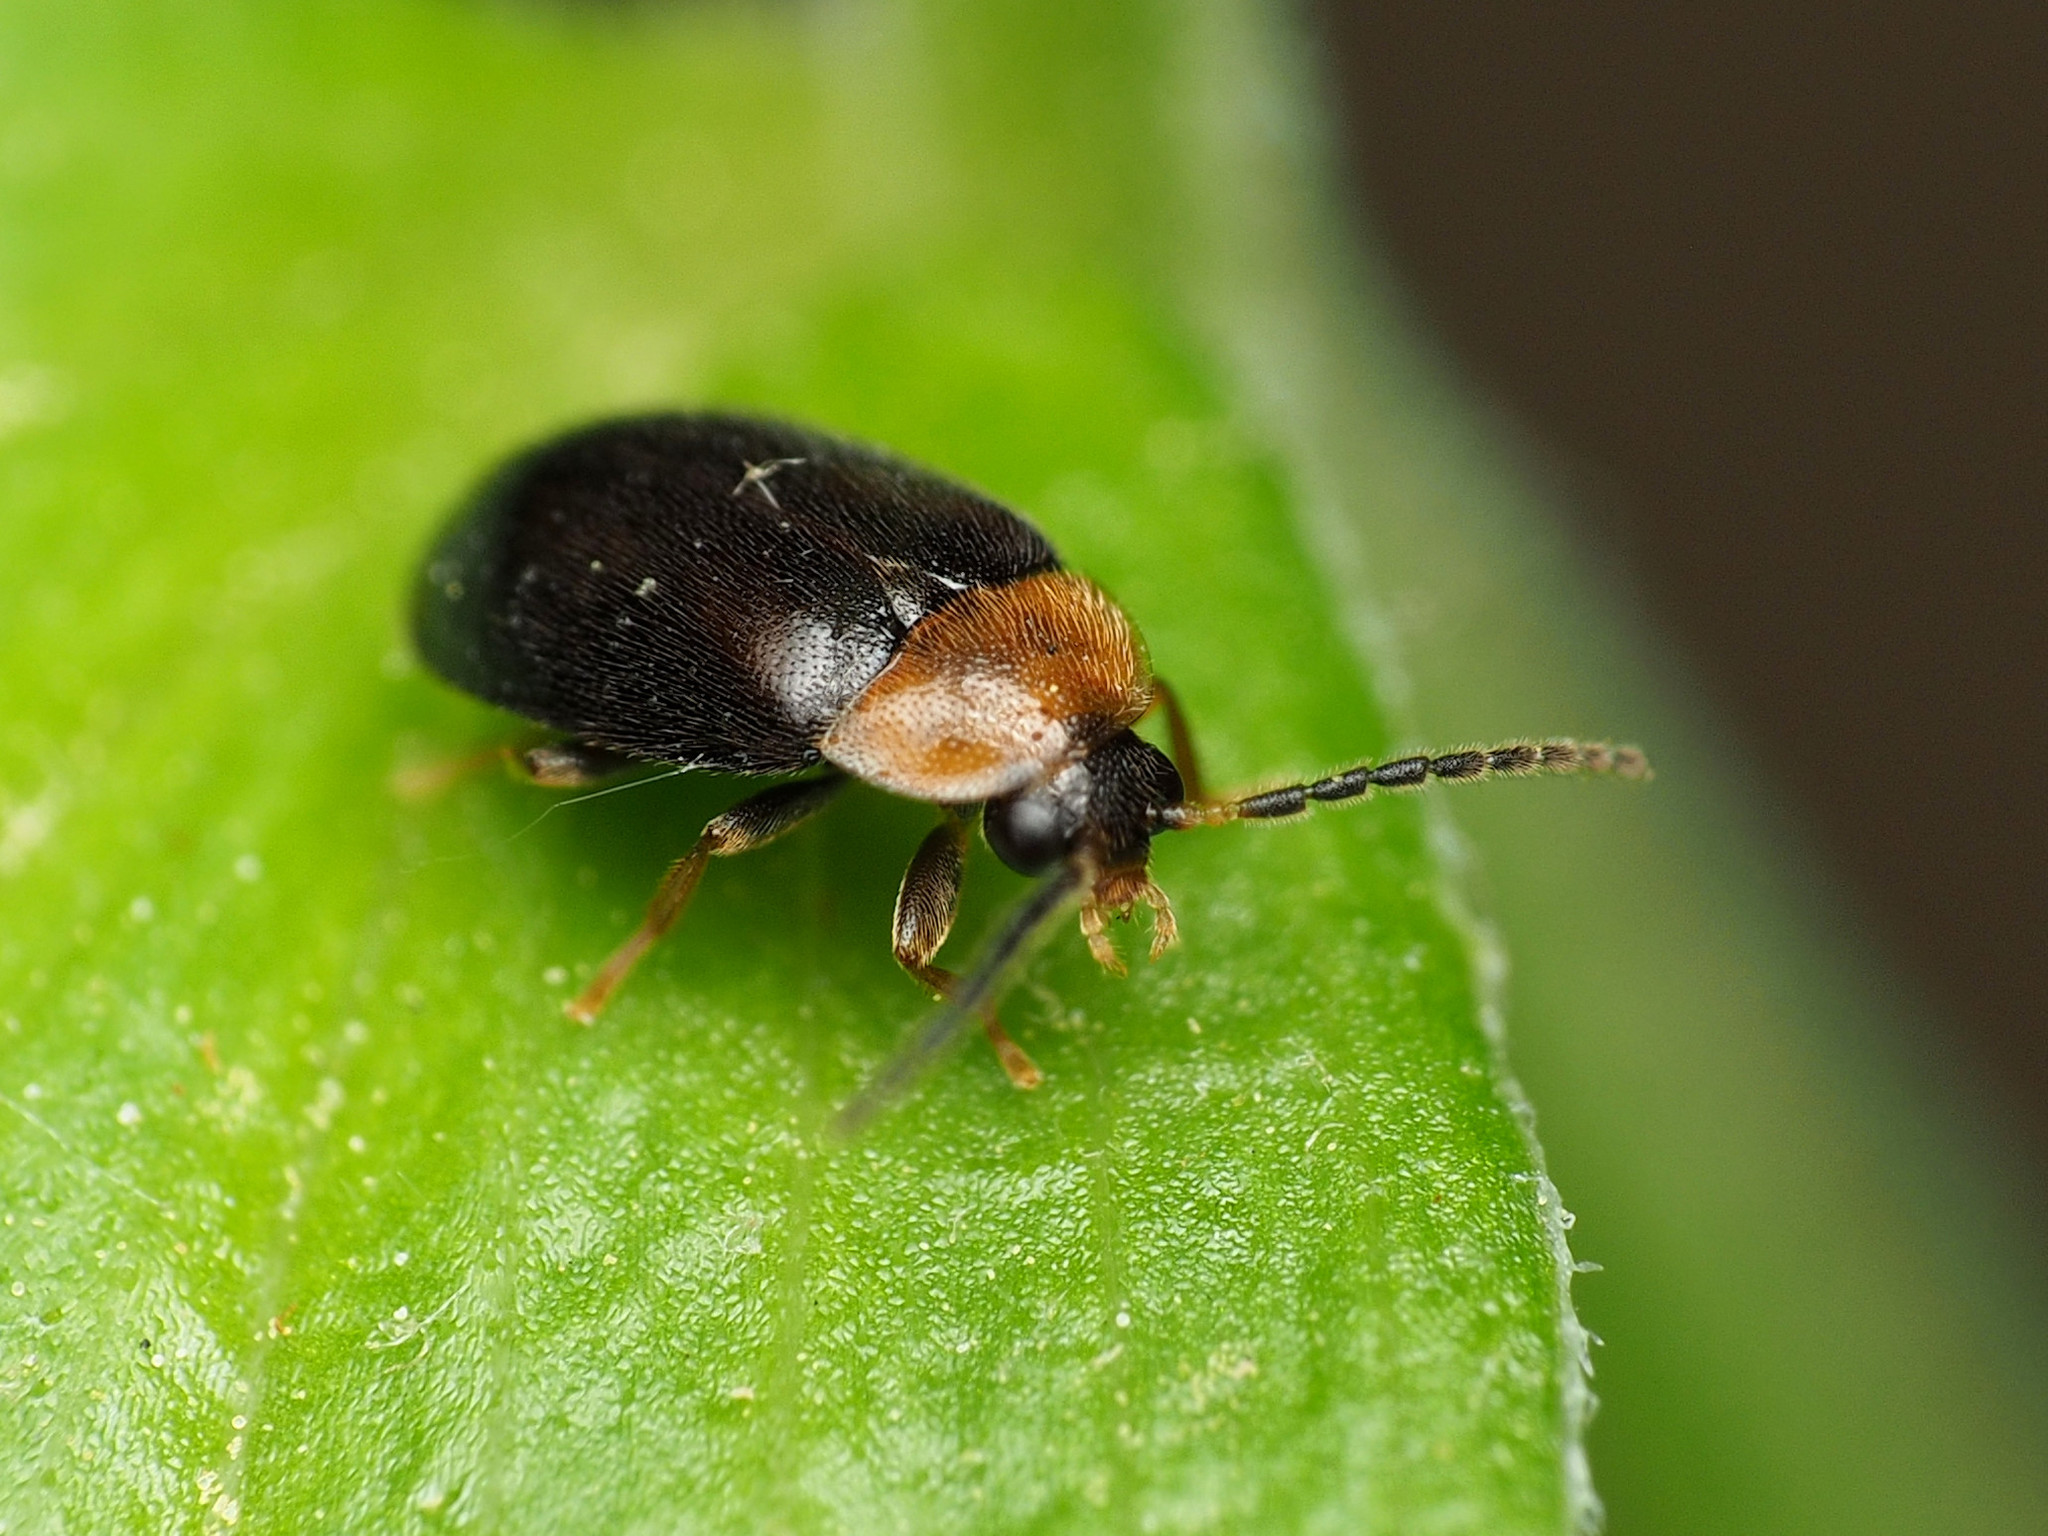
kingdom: Animalia
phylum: Arthropoda
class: Insecta
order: Coleoptera
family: Scirtidae
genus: Cyphon
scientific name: Cyphon ruficollis
